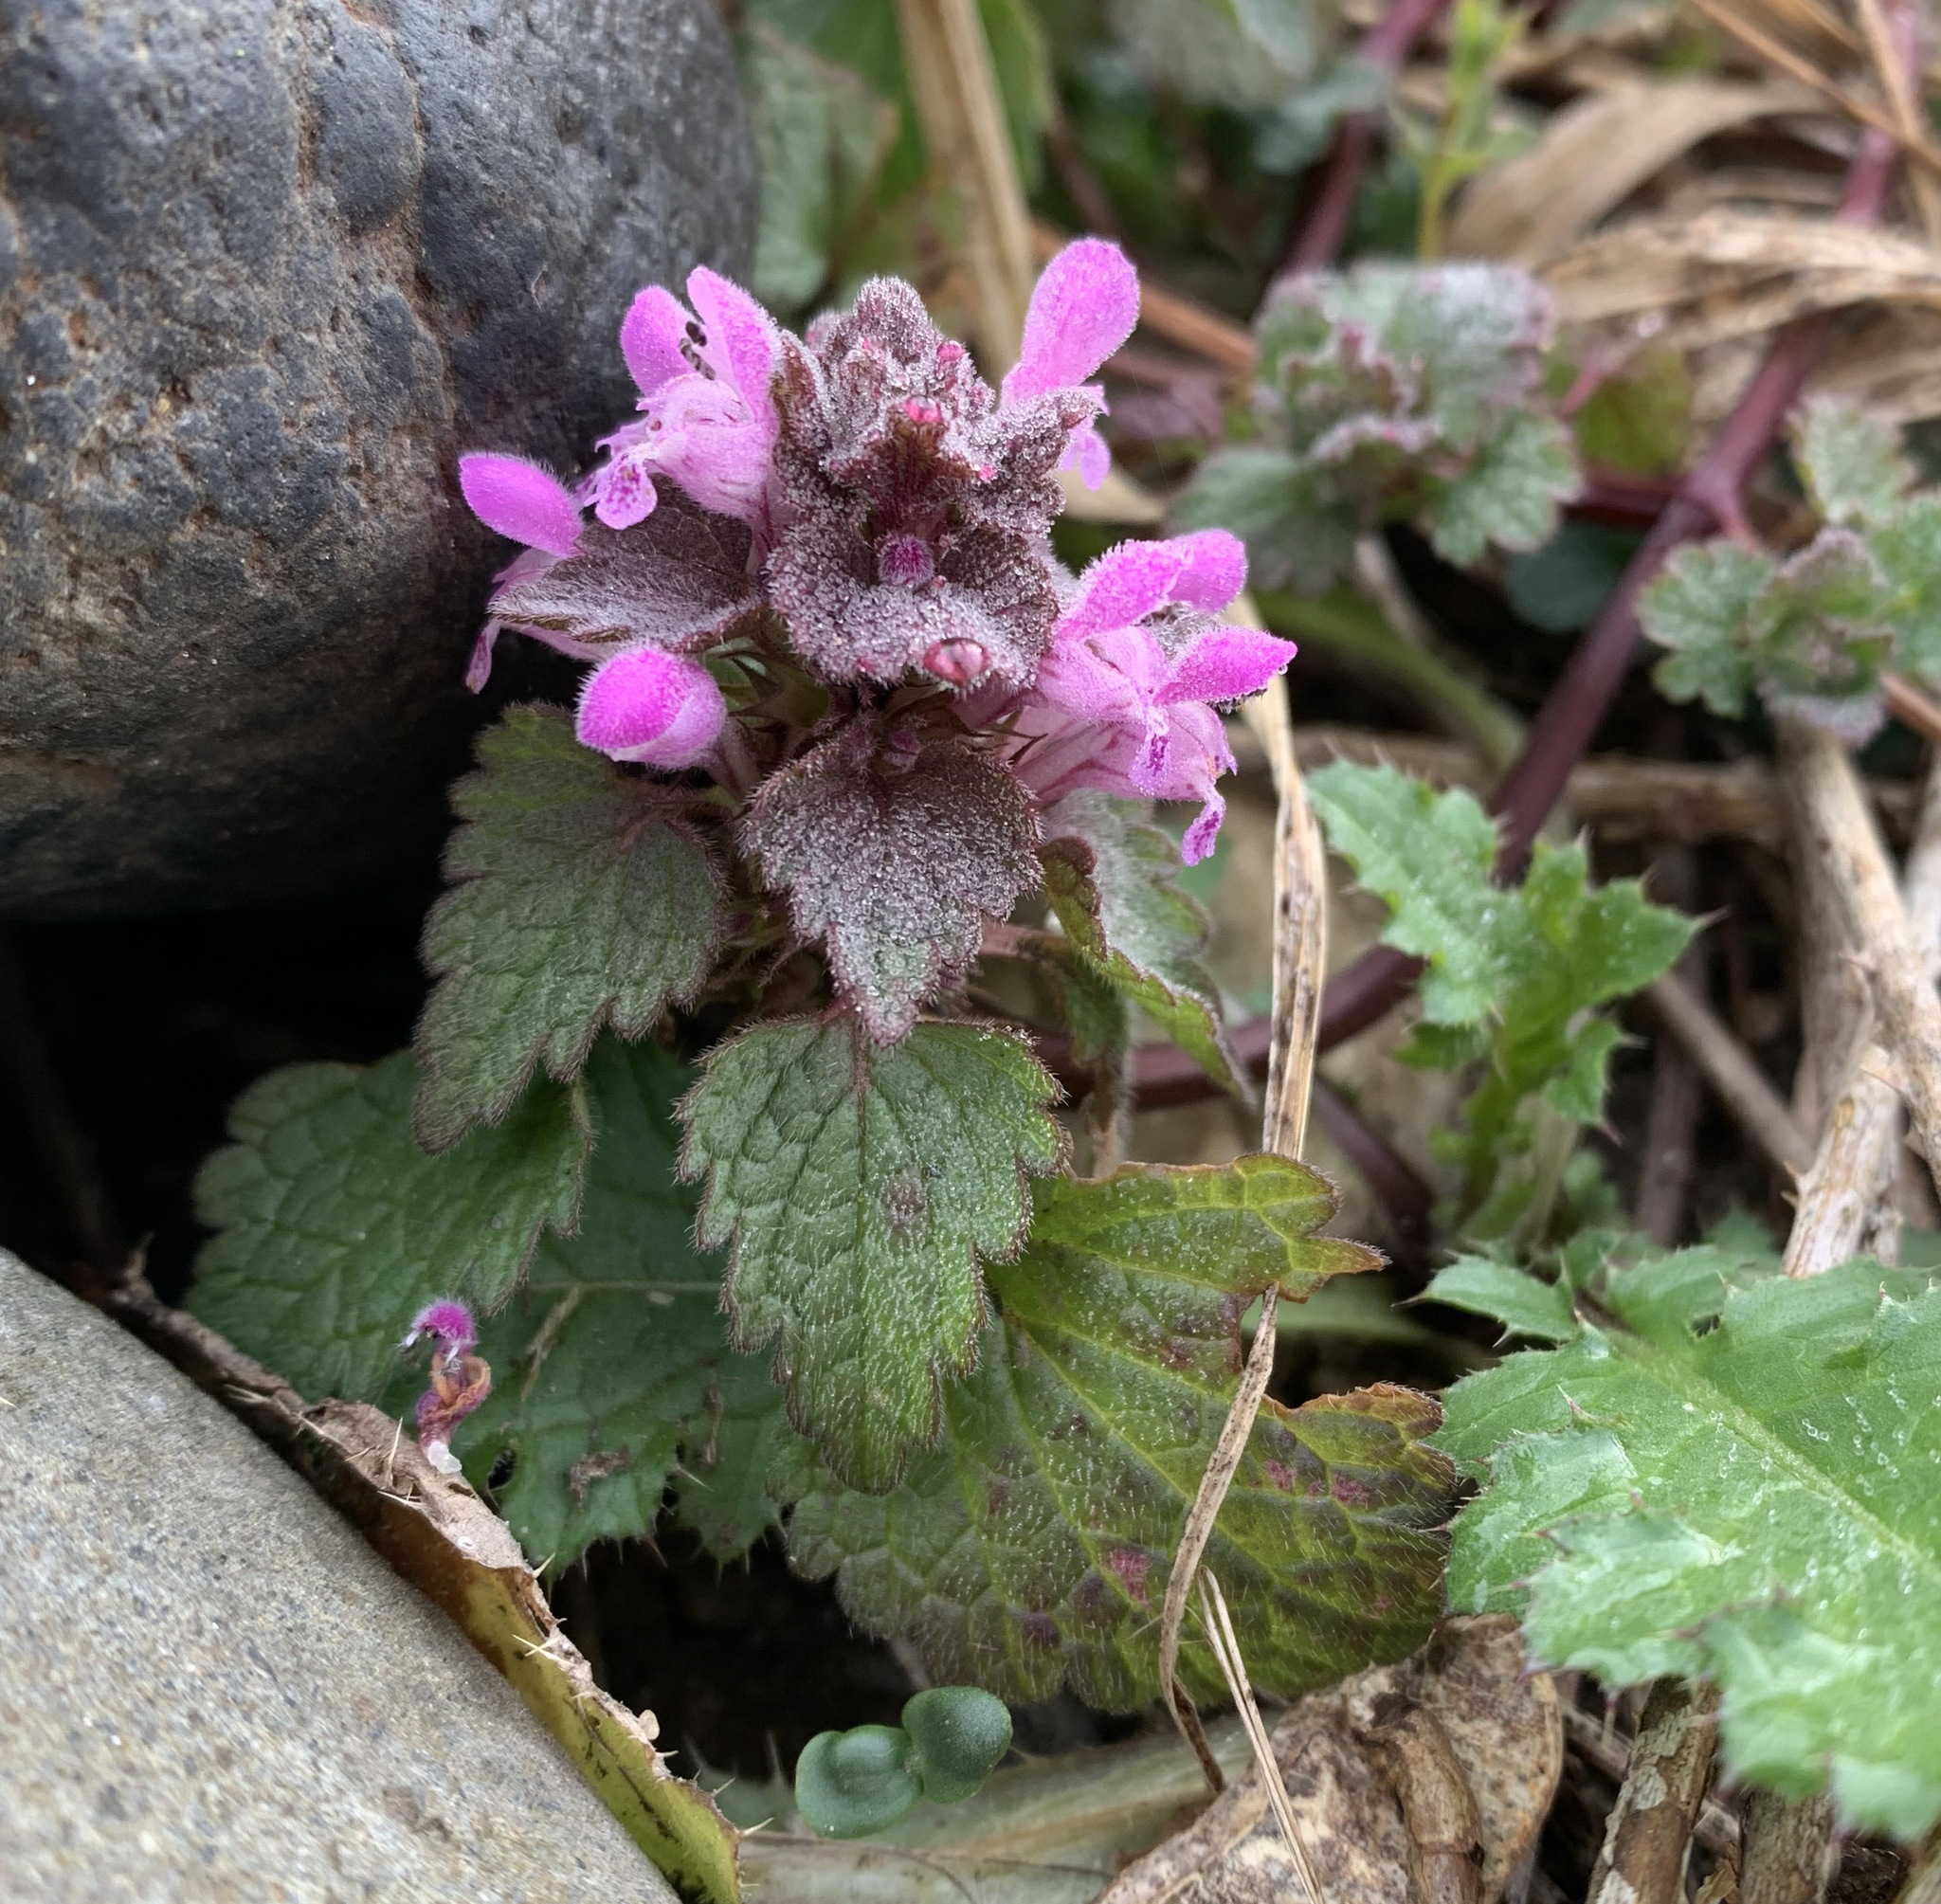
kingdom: Plantae
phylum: Tracheophyta
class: Magnoliopsida
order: Lamiales
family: Lamiaceae
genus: Lamium
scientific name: Lamium purpureum
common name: Red dead-nettle
